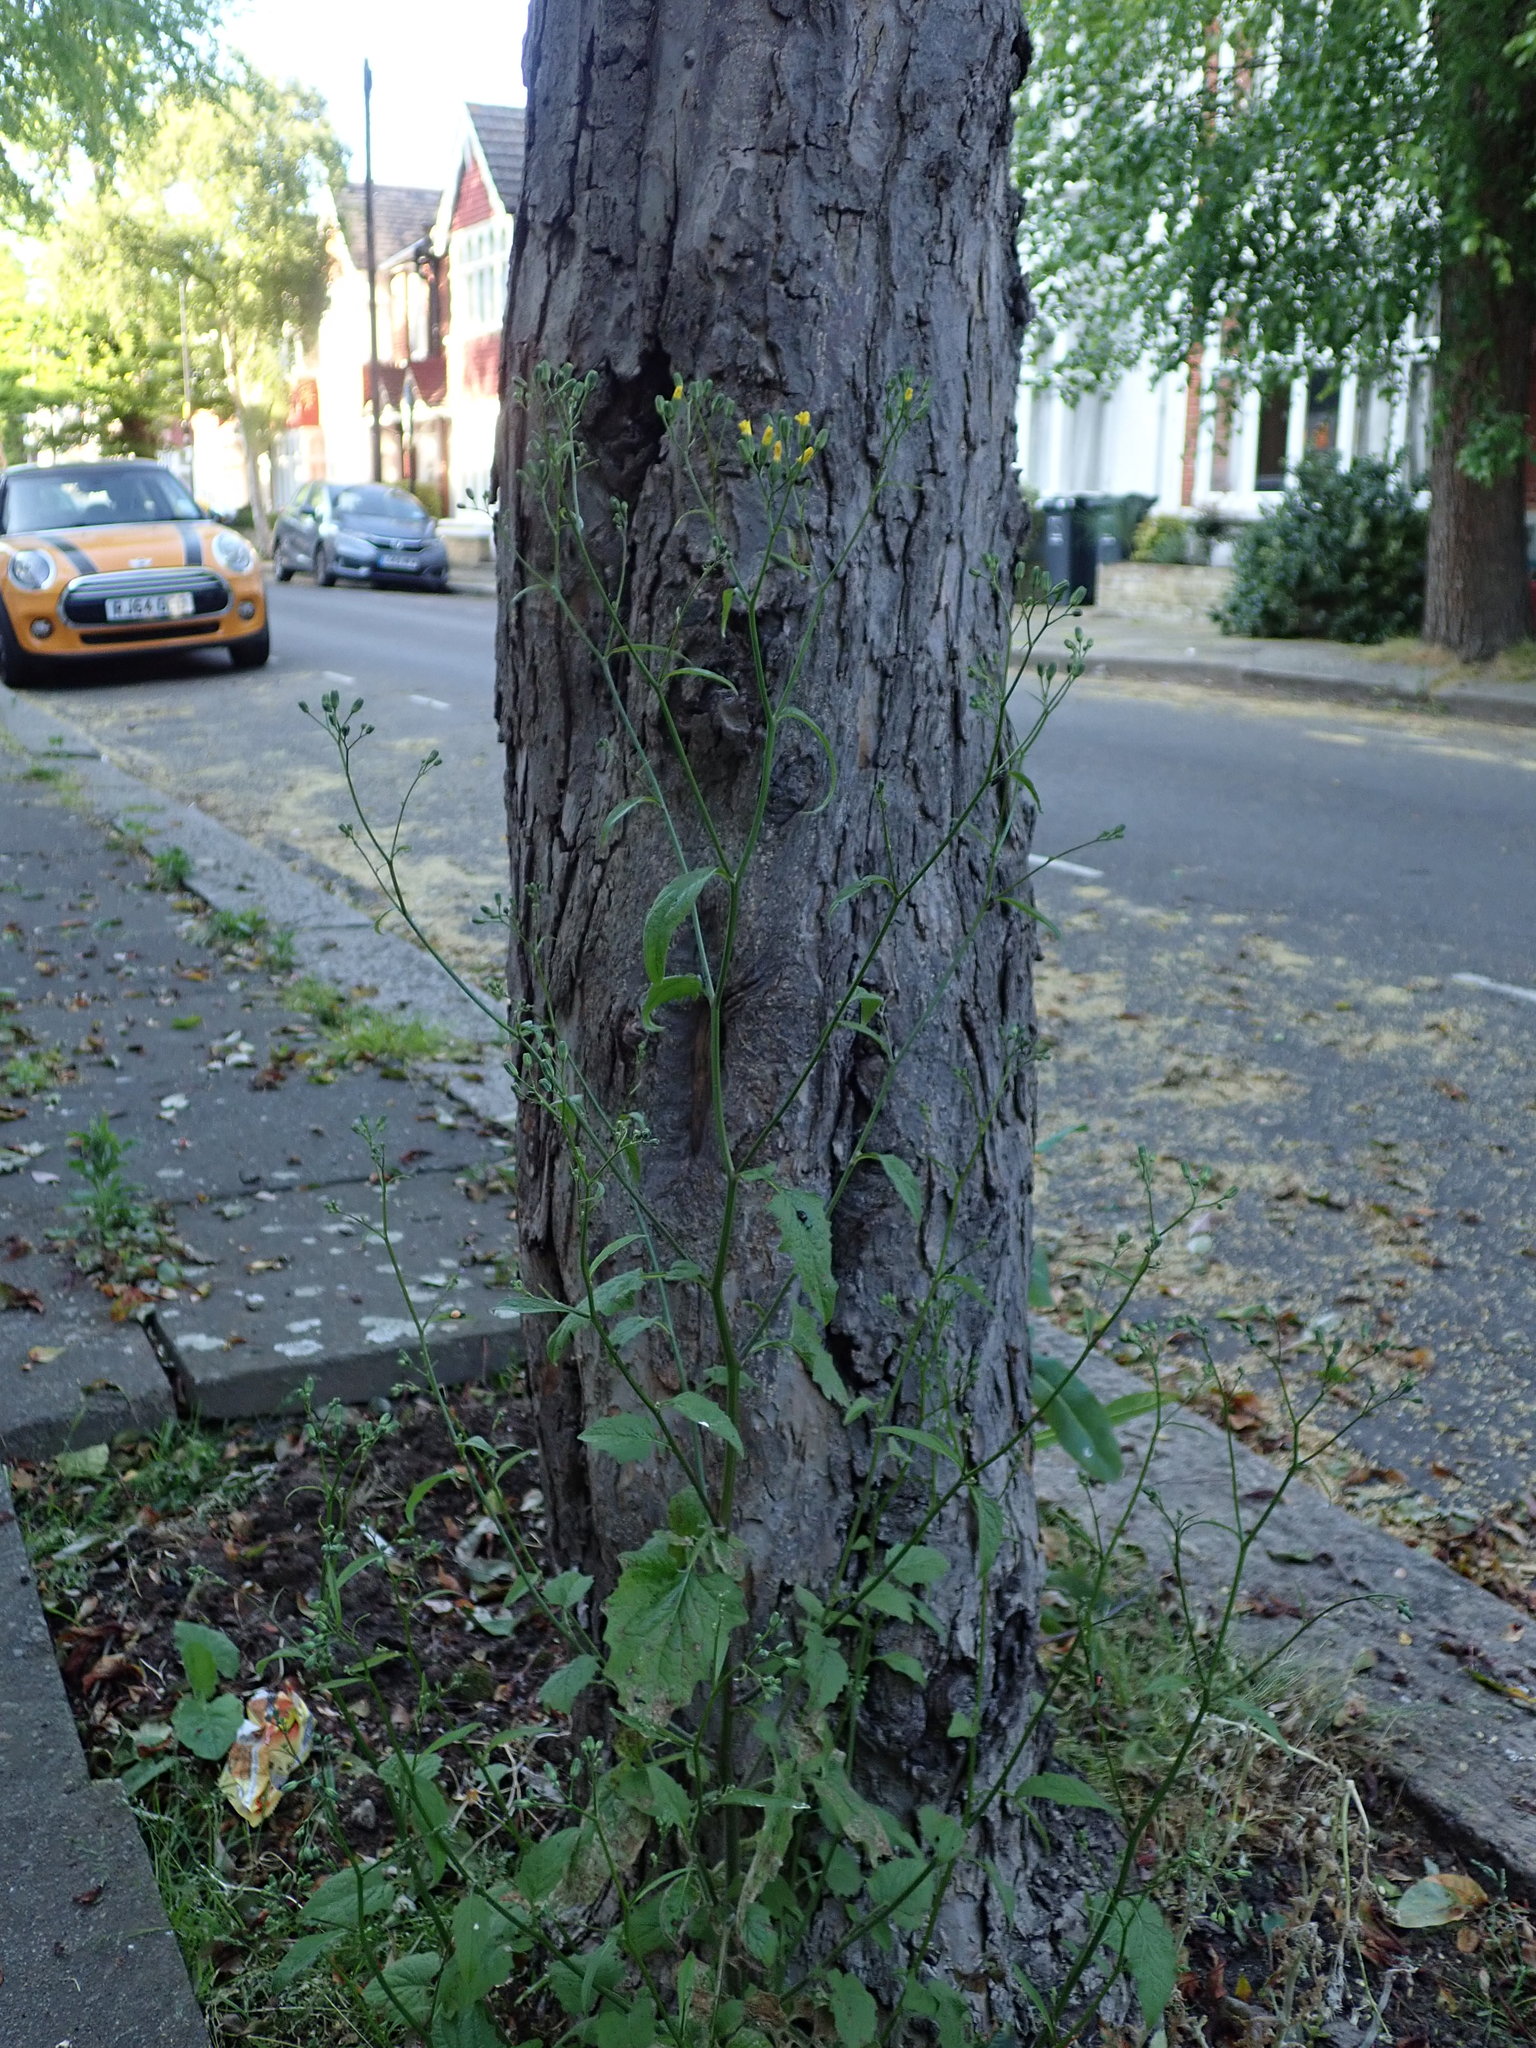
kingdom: Plantae
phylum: Tracheophyta
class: Magnoliopsida
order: Asterales
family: Asteraceae
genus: Lapsana
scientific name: Lapsana communis
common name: Nipplewort
